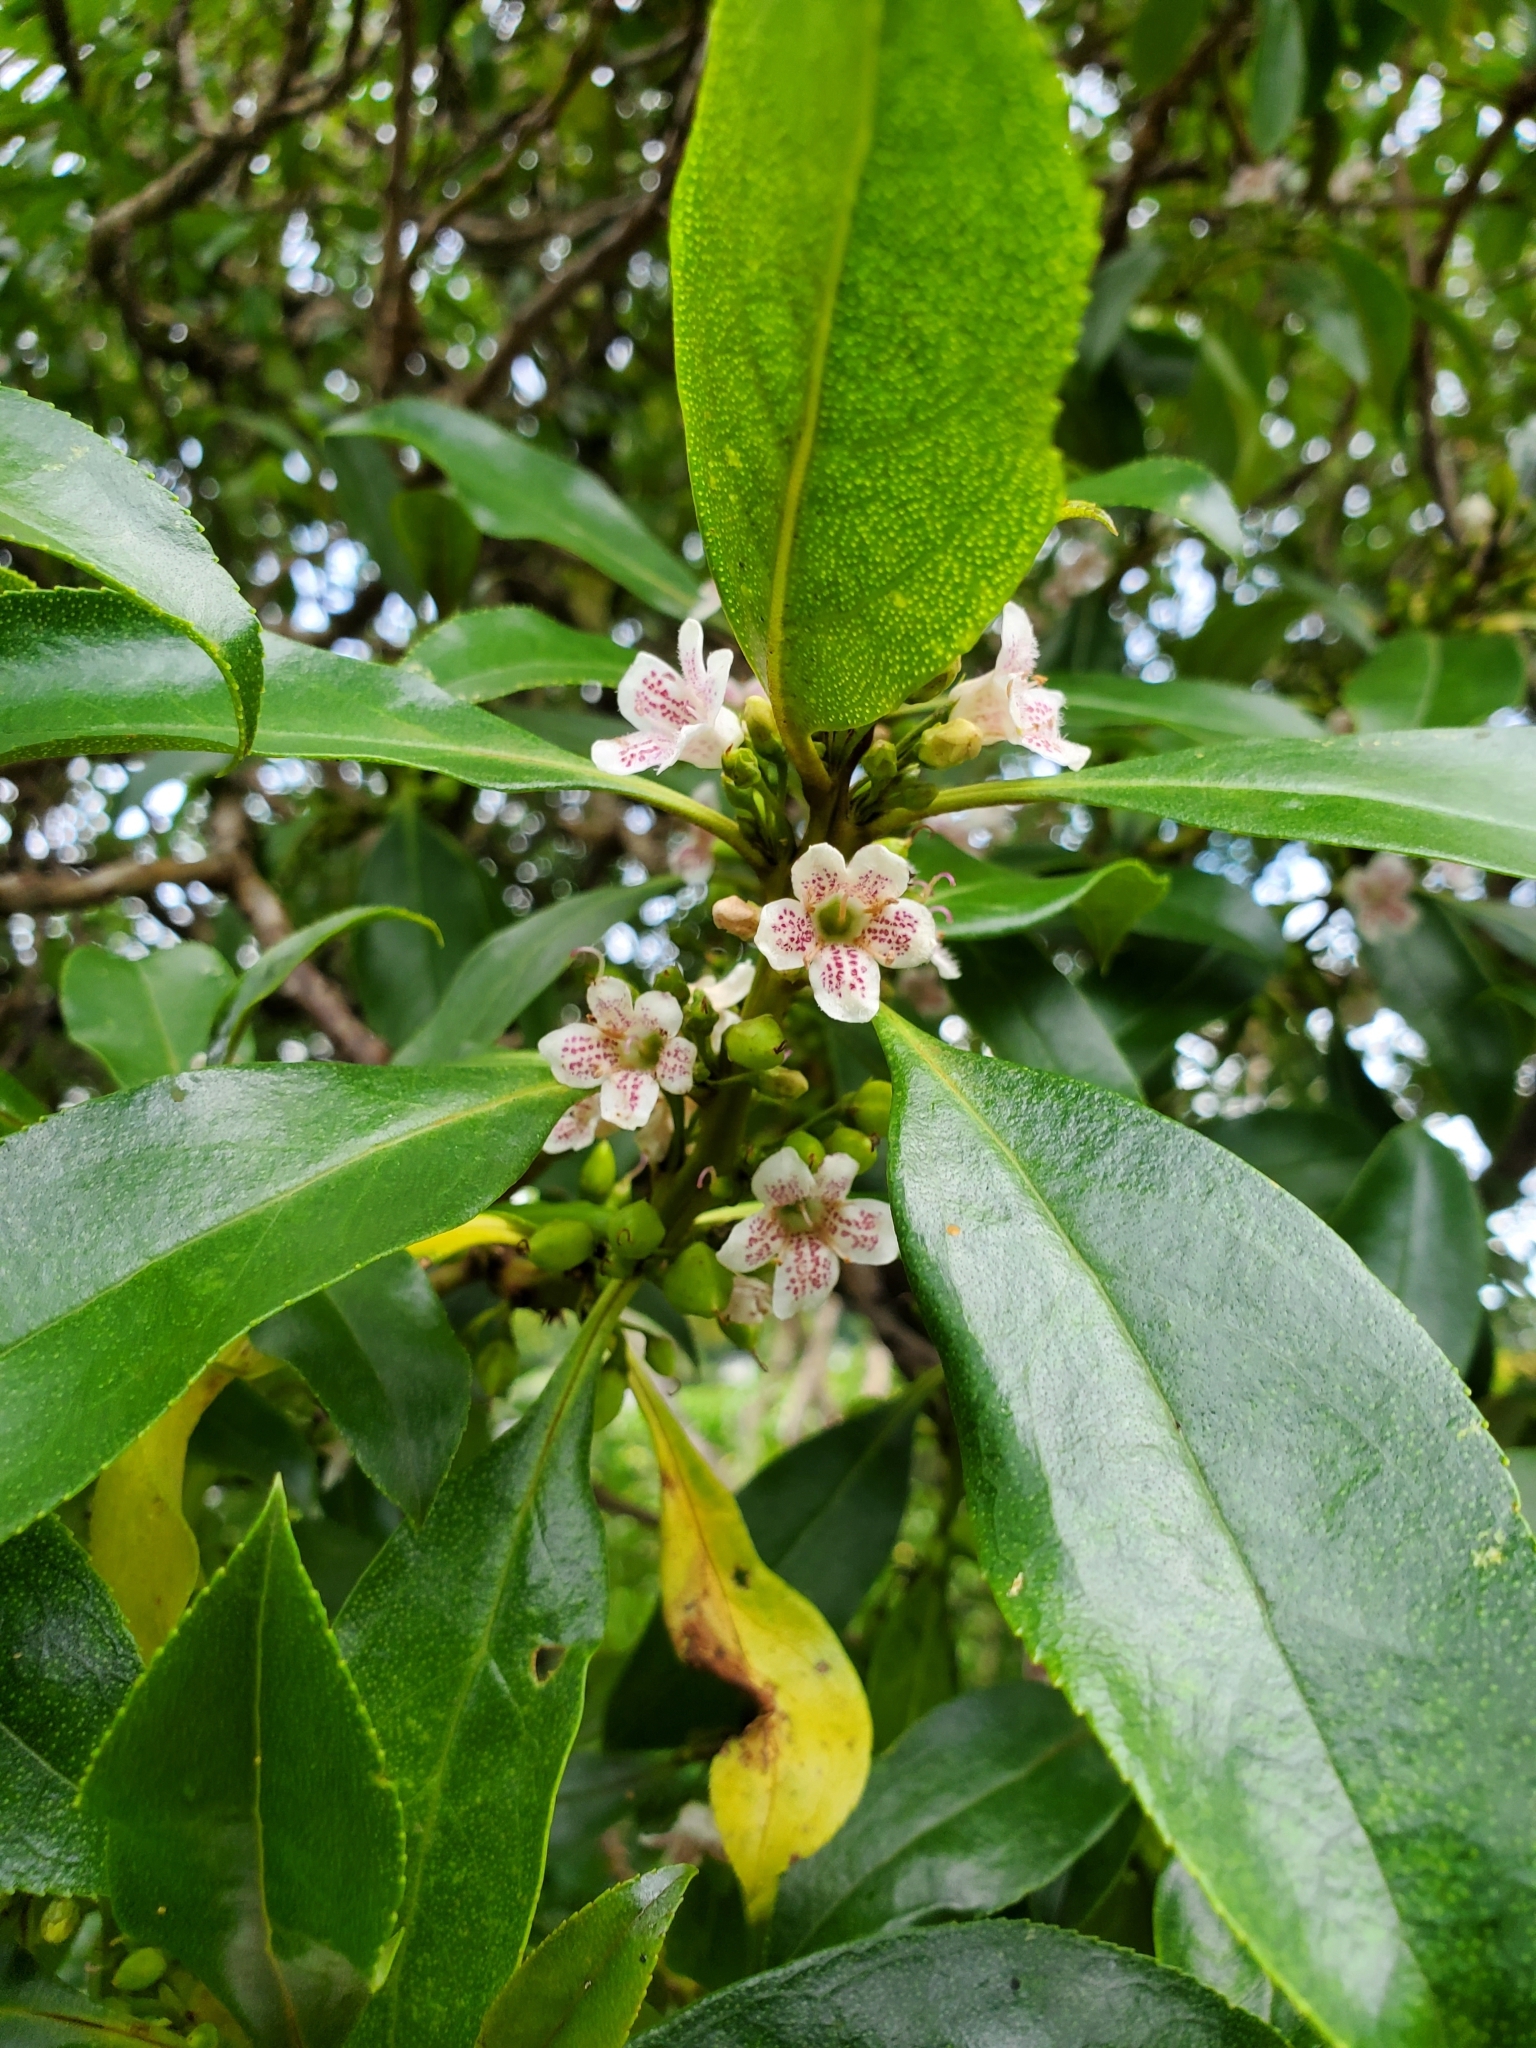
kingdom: Plantae
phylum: Tracheophyta
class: Magnoliopsida
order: Lamiales
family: Scrophulariaceae
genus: Myoporum
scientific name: Myoporum insulare
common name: Common boobialla
